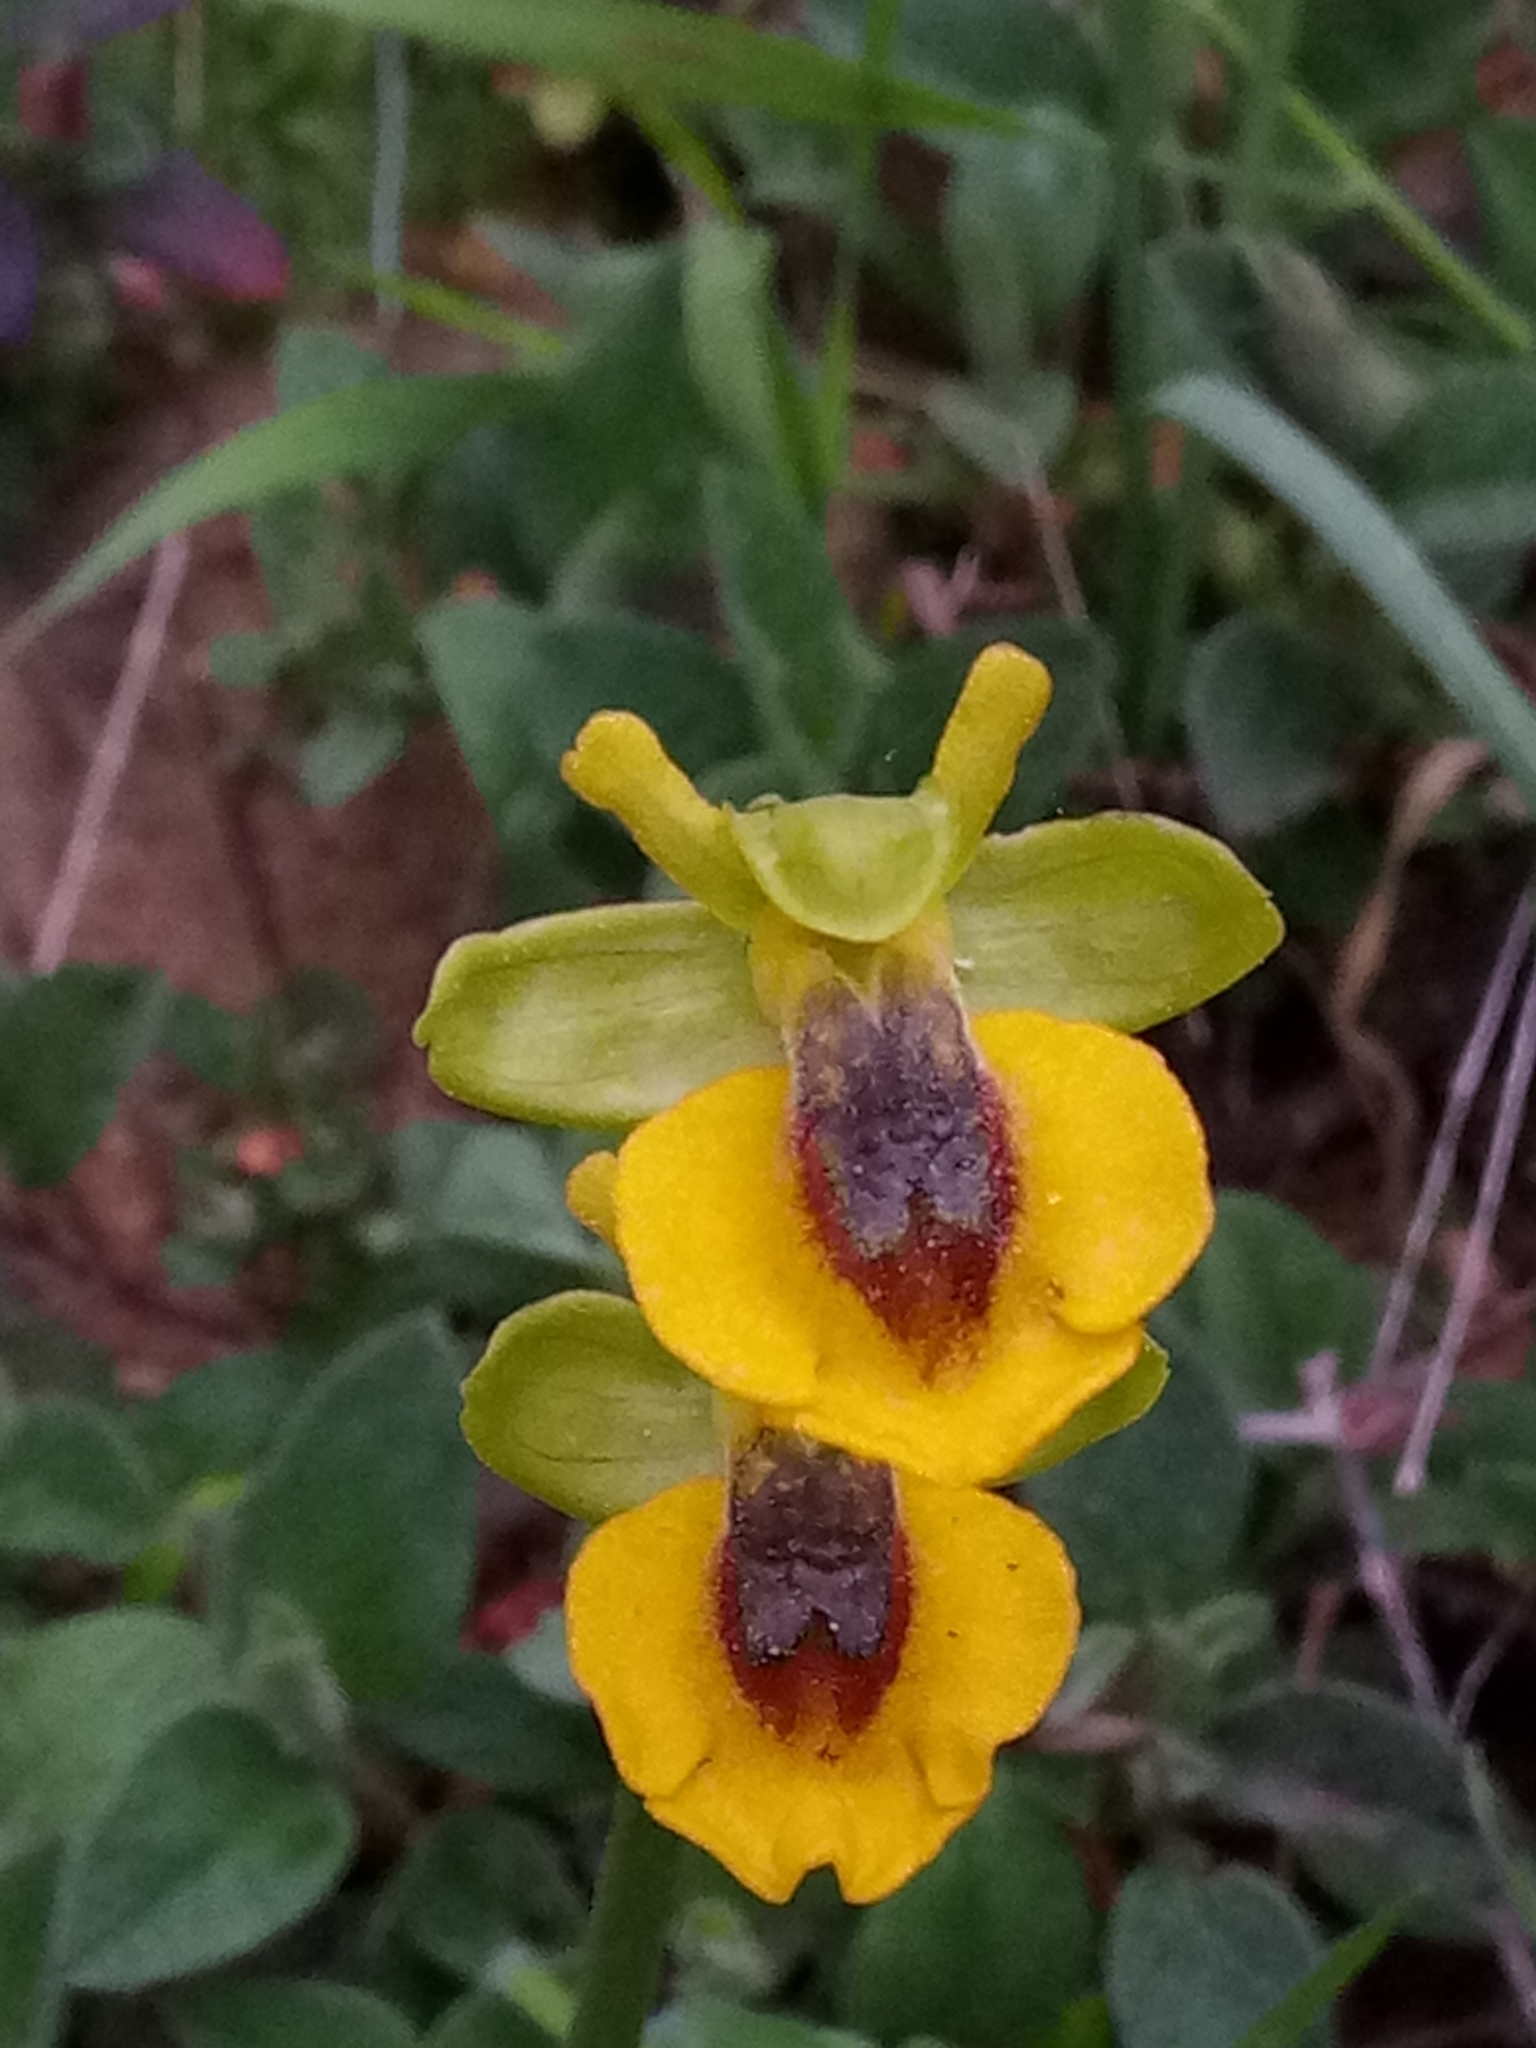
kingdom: Plantae
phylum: Tracheophyta
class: Liliopsida
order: Asparagales
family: Orchidaceae
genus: Ophrys
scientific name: Ophrys lutea
